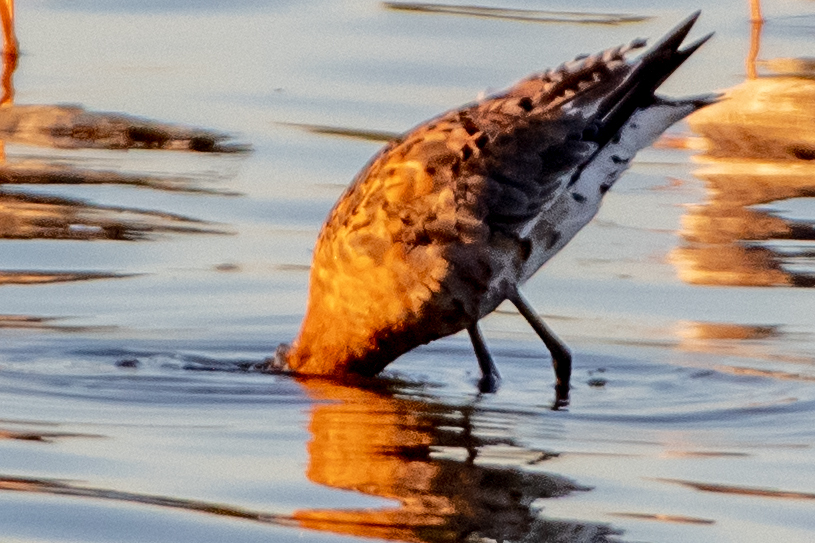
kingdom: Animalia
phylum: Chordata
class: Aves
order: Charadriiformes
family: Scolopacidae
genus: Limosa
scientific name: Limosa limosa
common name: Black-tailed godwit
